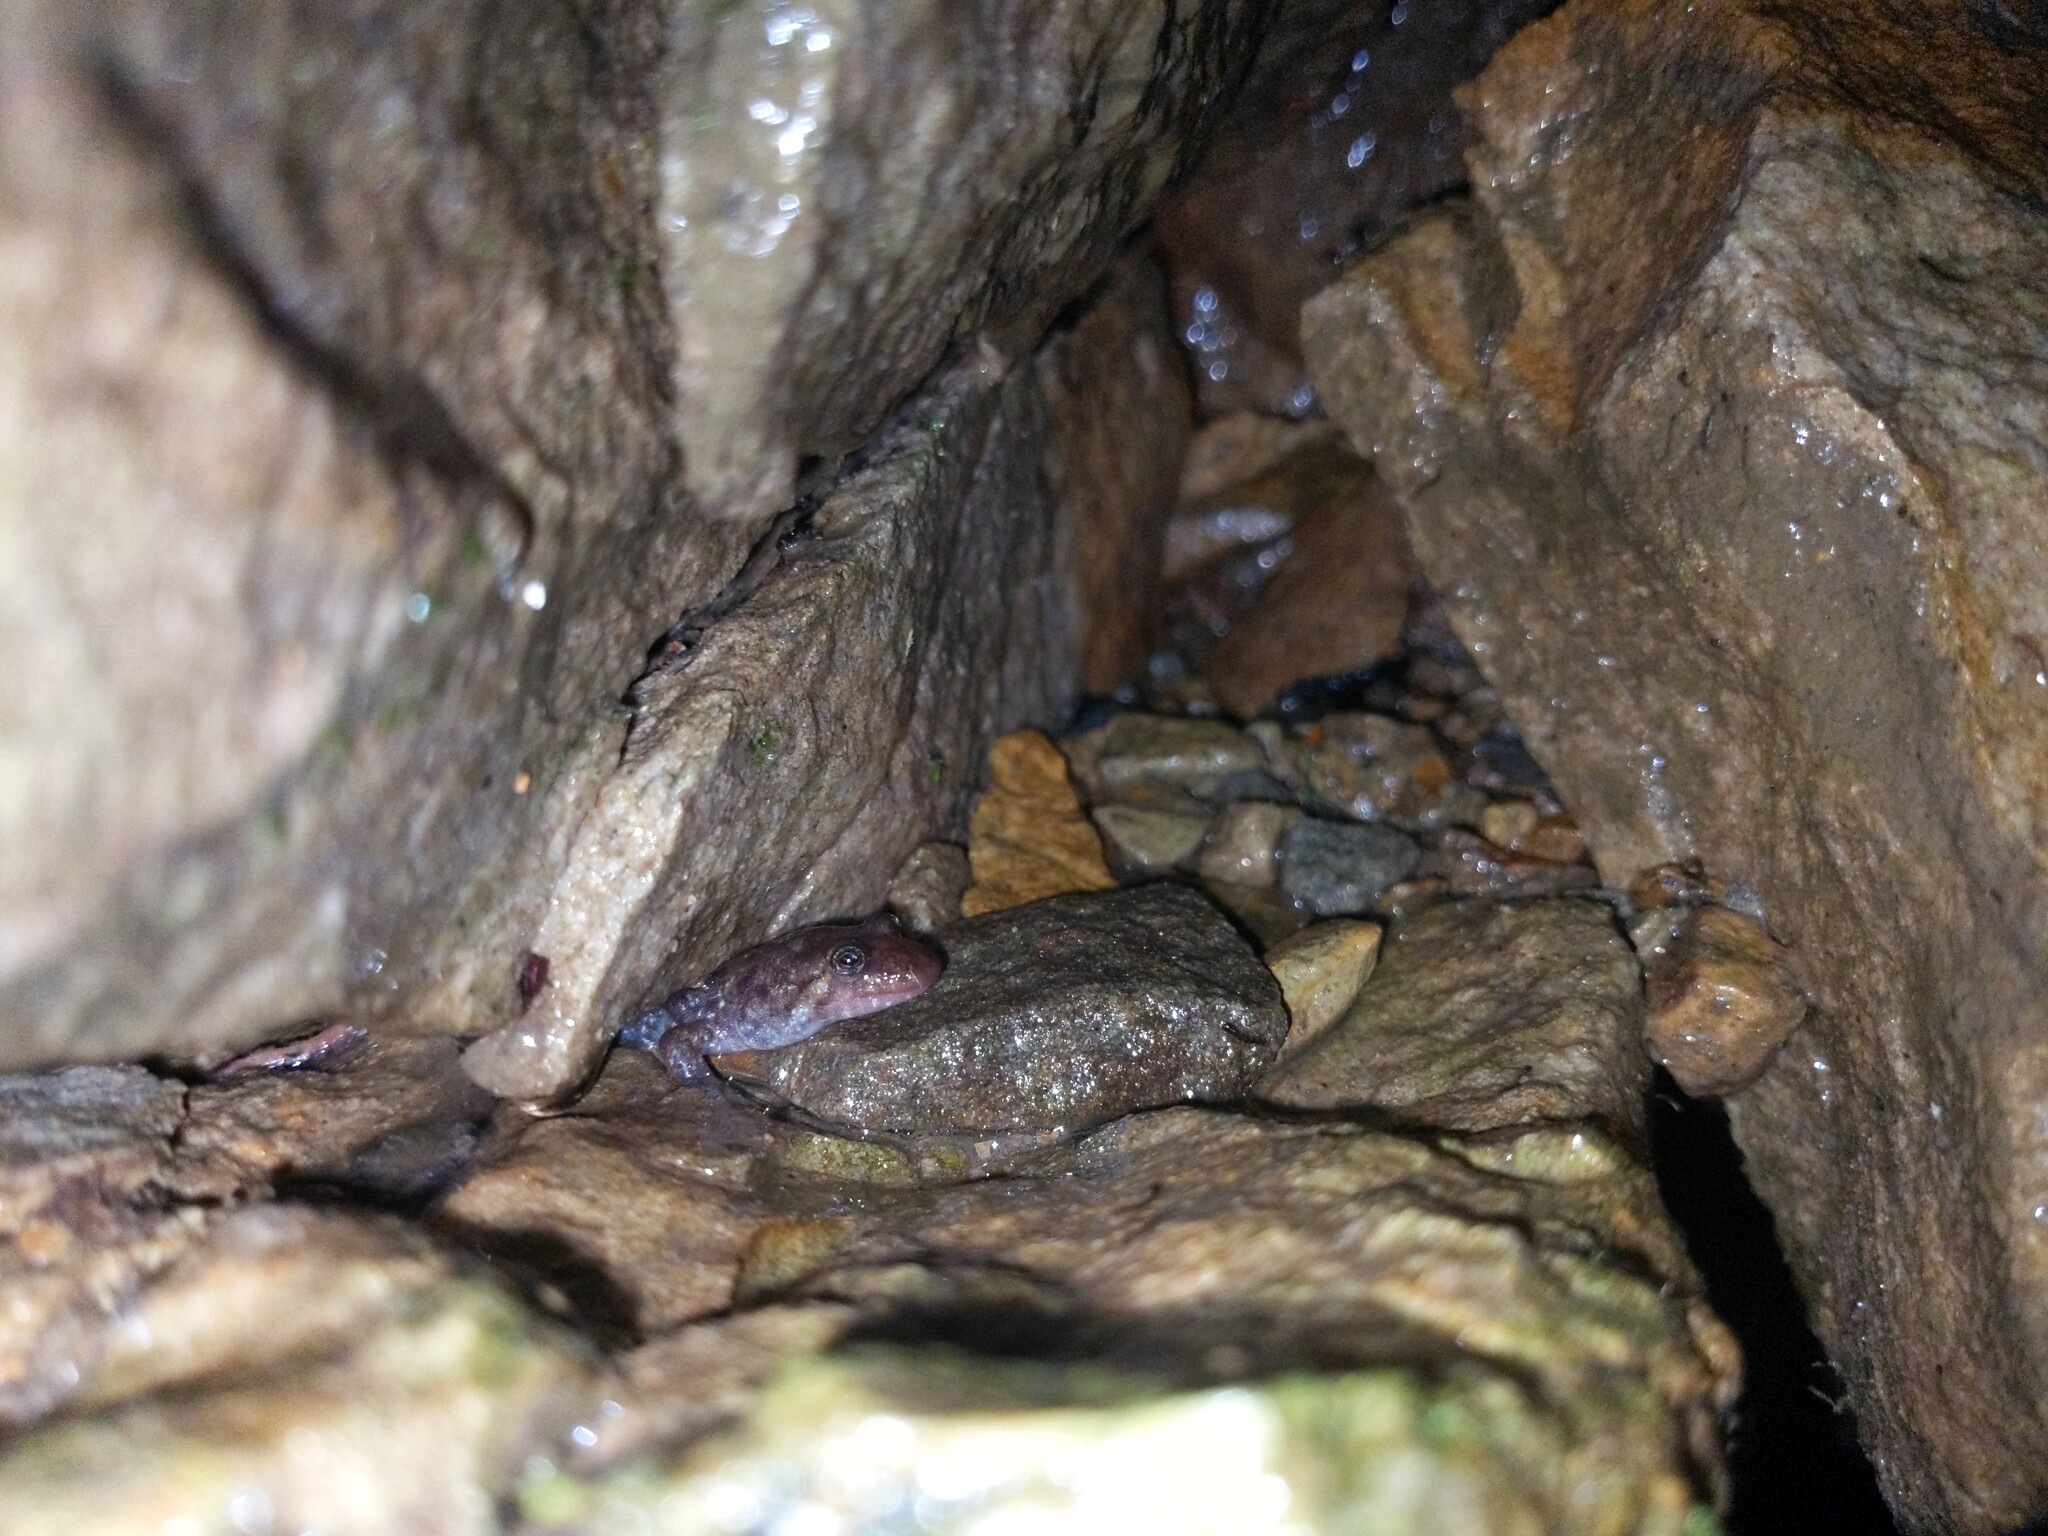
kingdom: Animalia
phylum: Chordata
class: Amphibia
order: Caudata
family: Plethodontidae
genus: Desmognathus
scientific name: Desmognathus monticola
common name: Seal salamander
